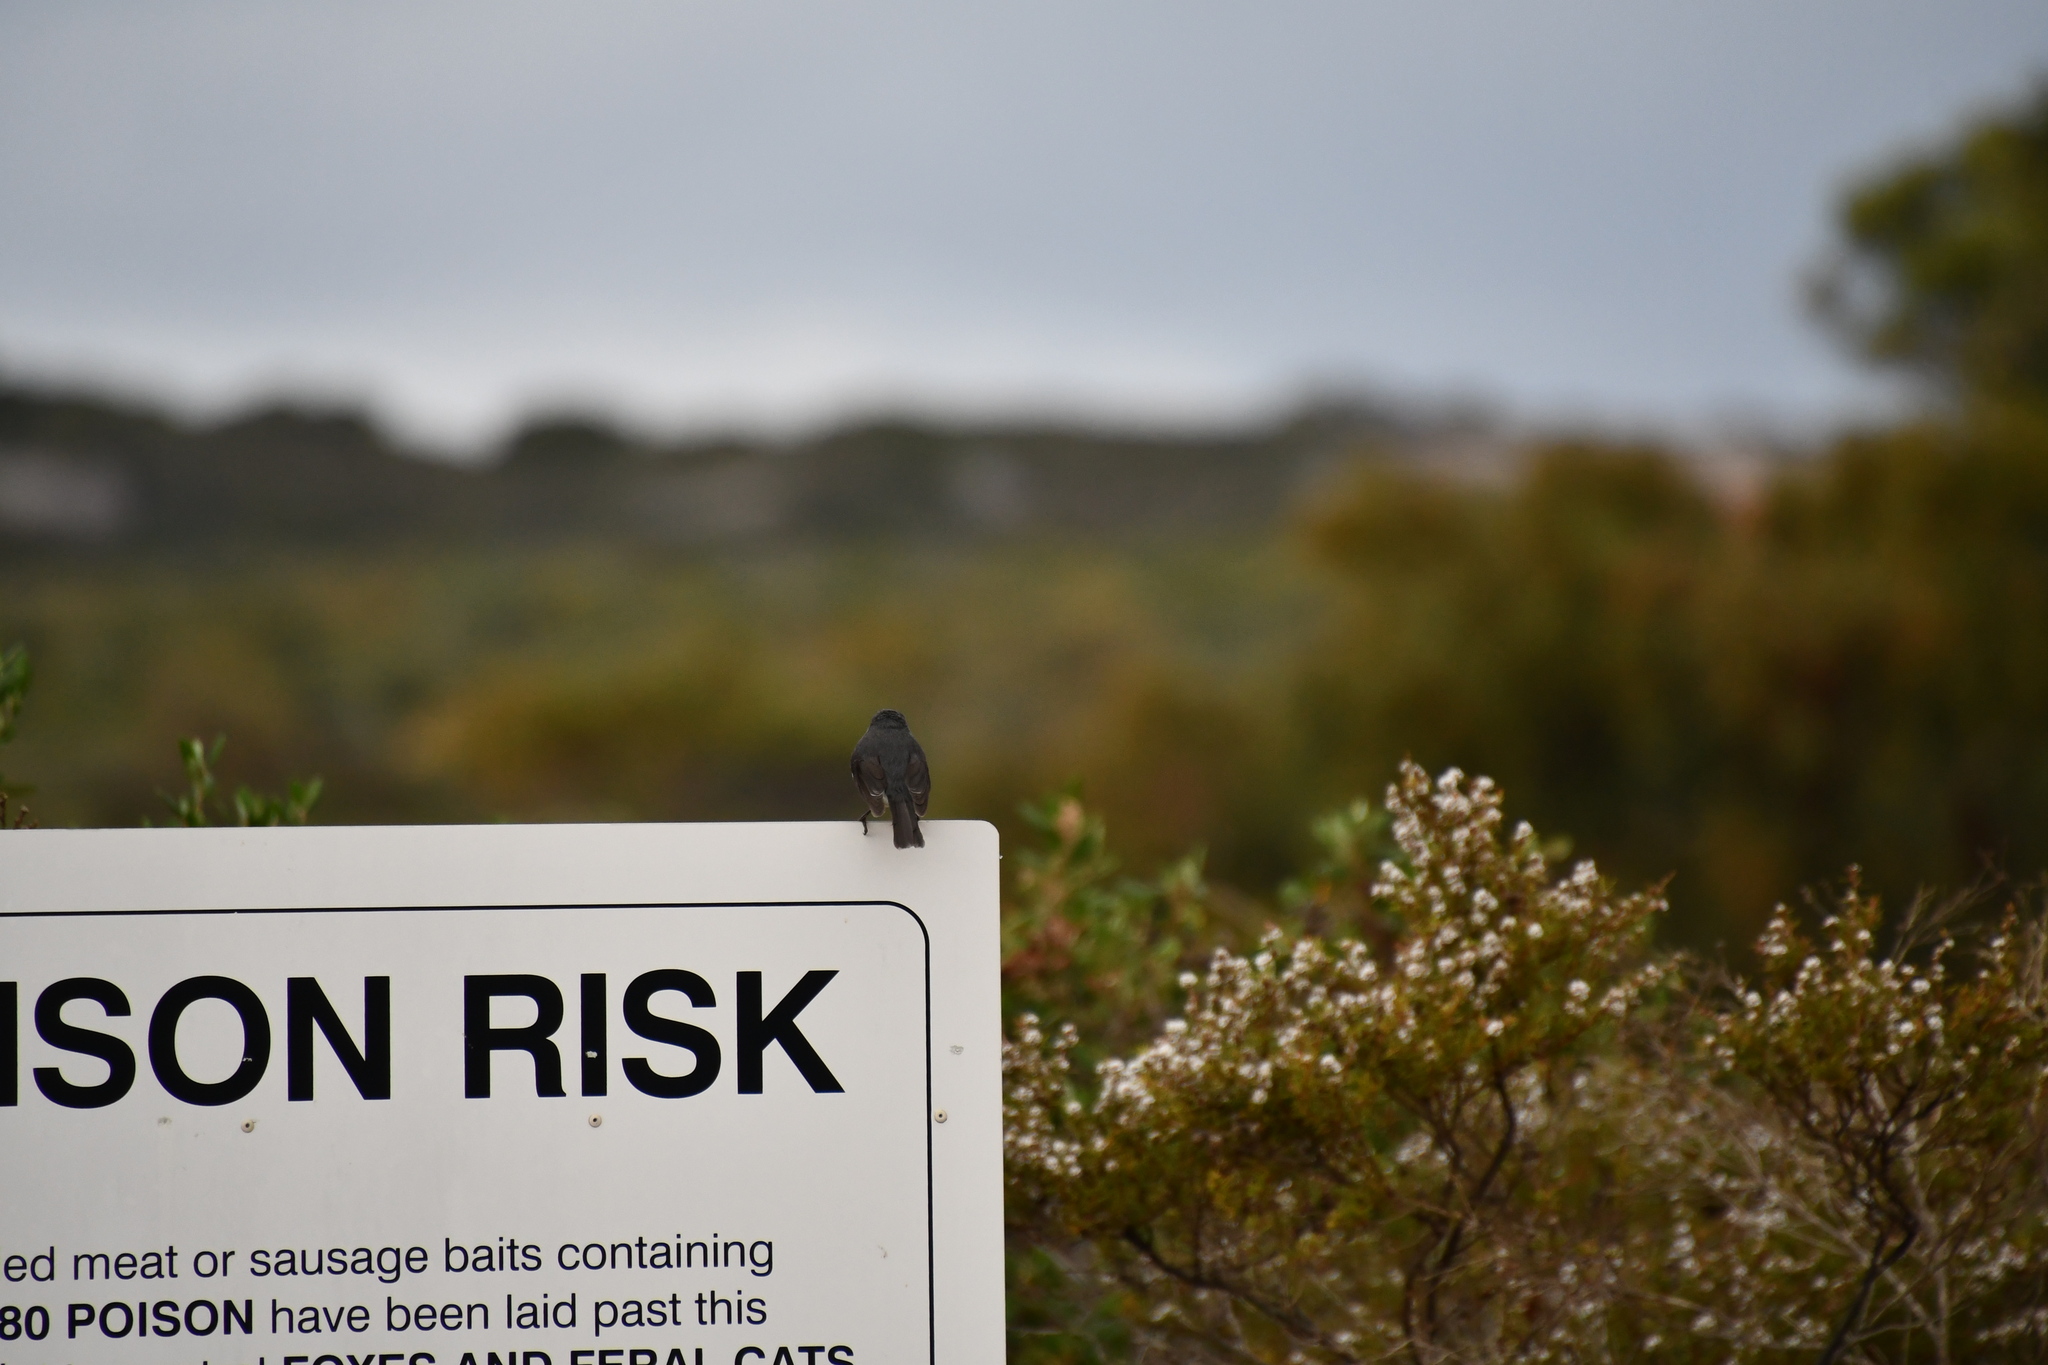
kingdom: Animalia
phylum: Chordata
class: Aves
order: Passeriformes
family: Petroicidae
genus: Eopsaltria
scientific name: Eopsaltria georgiana
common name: White-breasted robin
